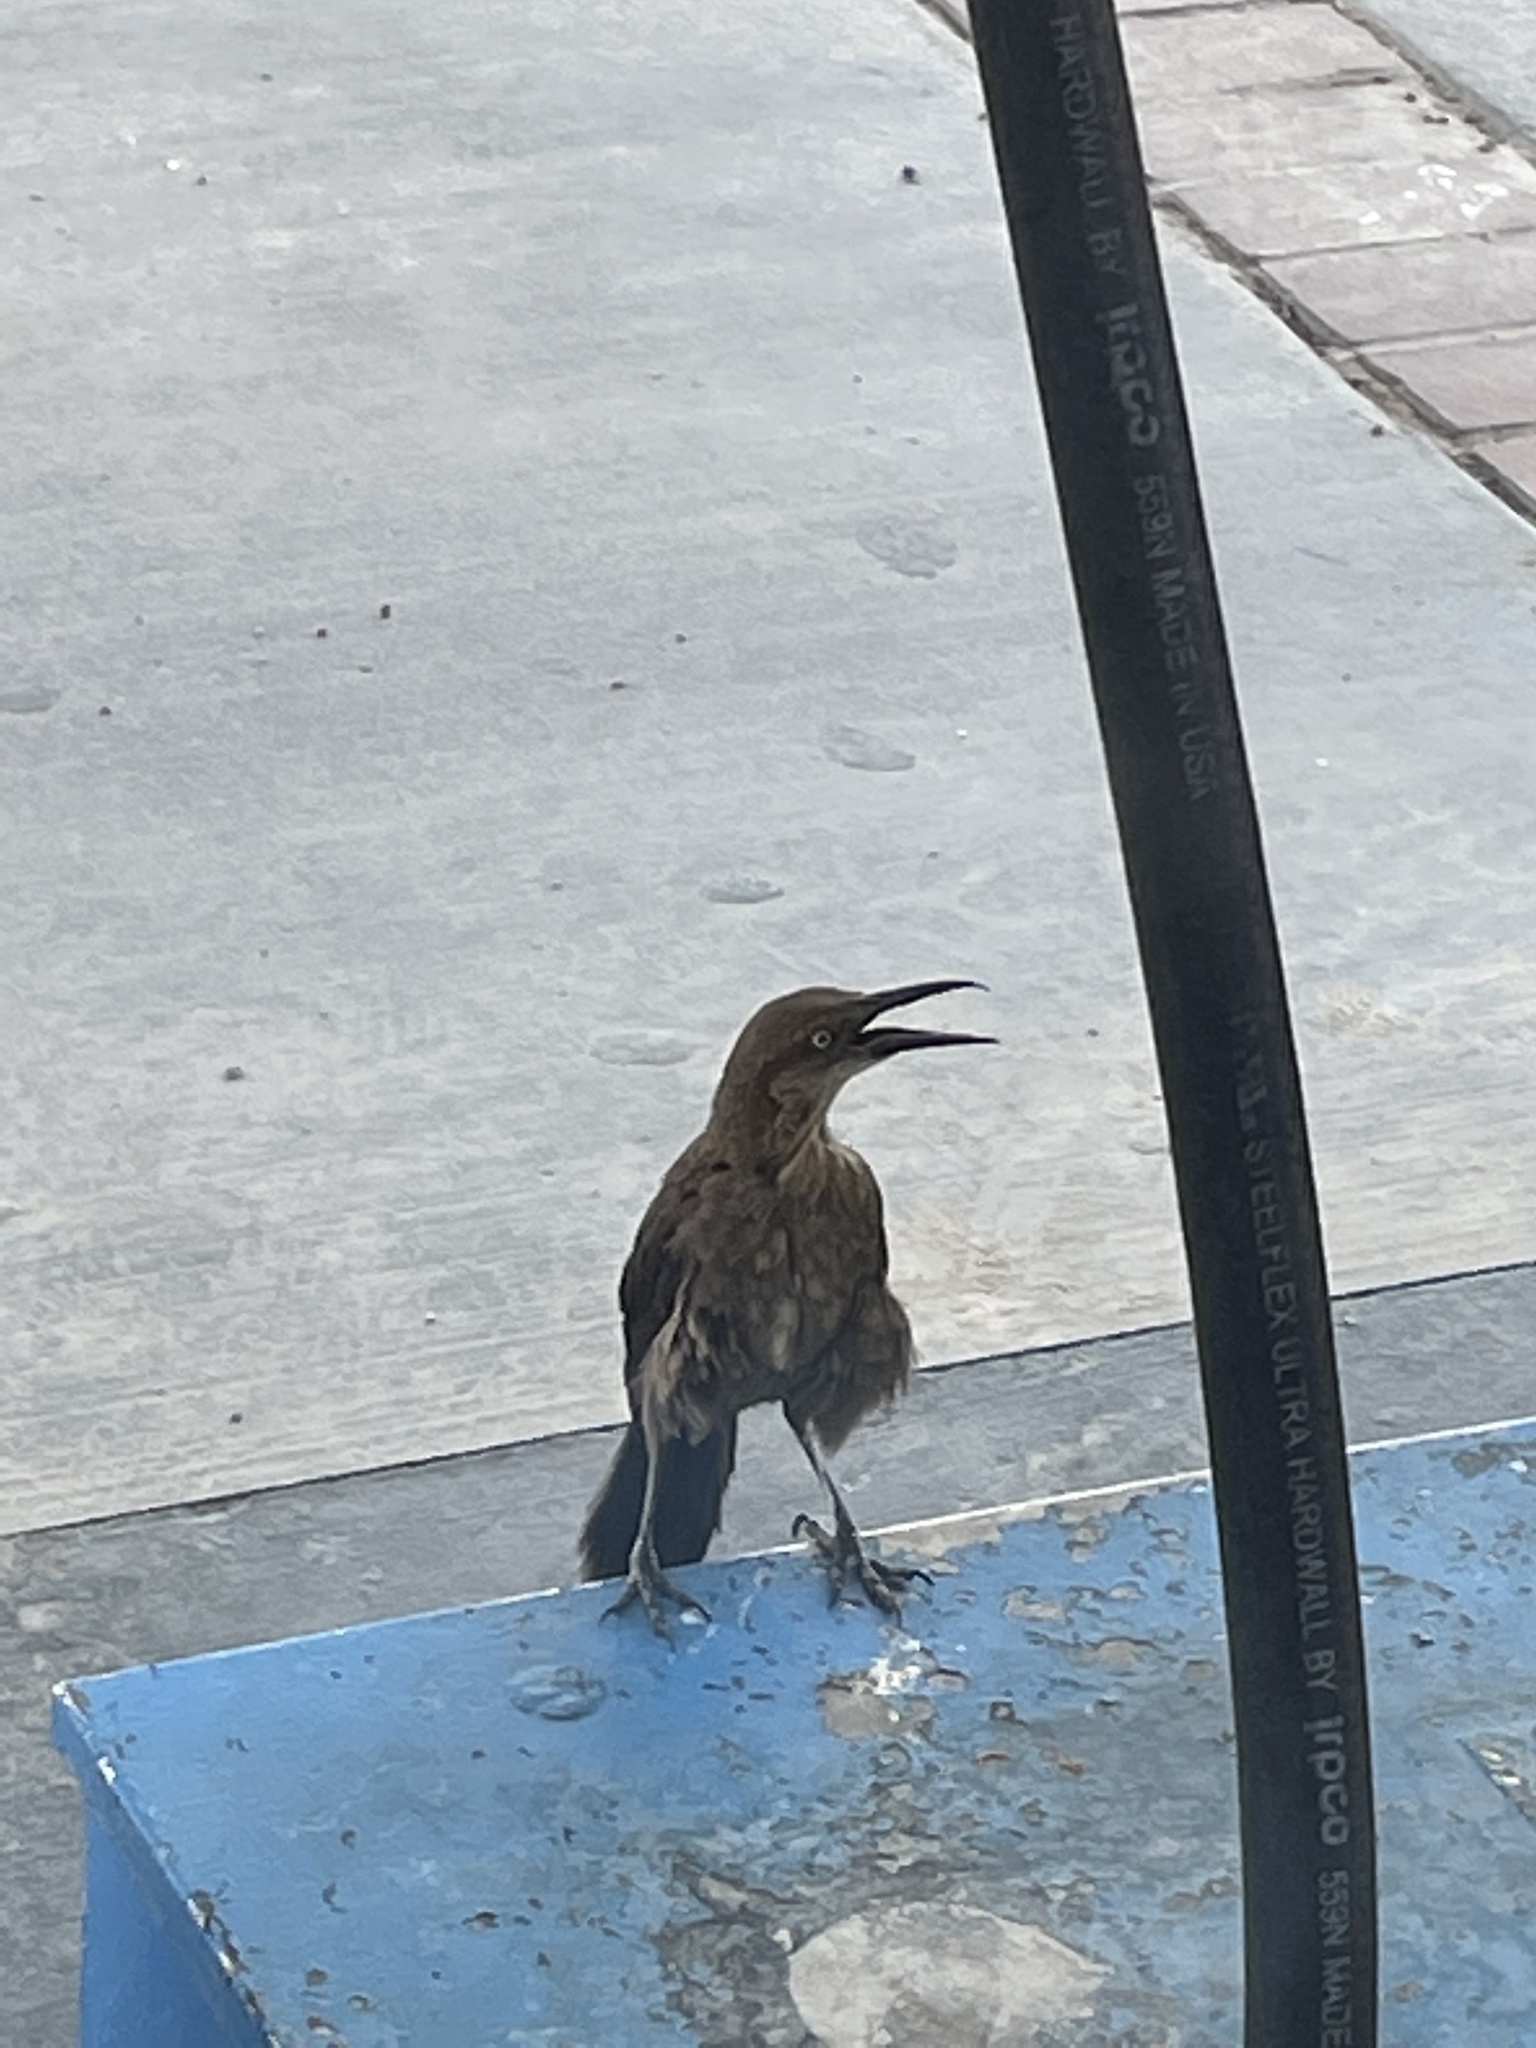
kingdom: Animalia
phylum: Chordata
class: Aves
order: Passeriformes
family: Icteridae
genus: Quiscalus
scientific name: Quiscalus mexicanus
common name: Great-tailed grackle
